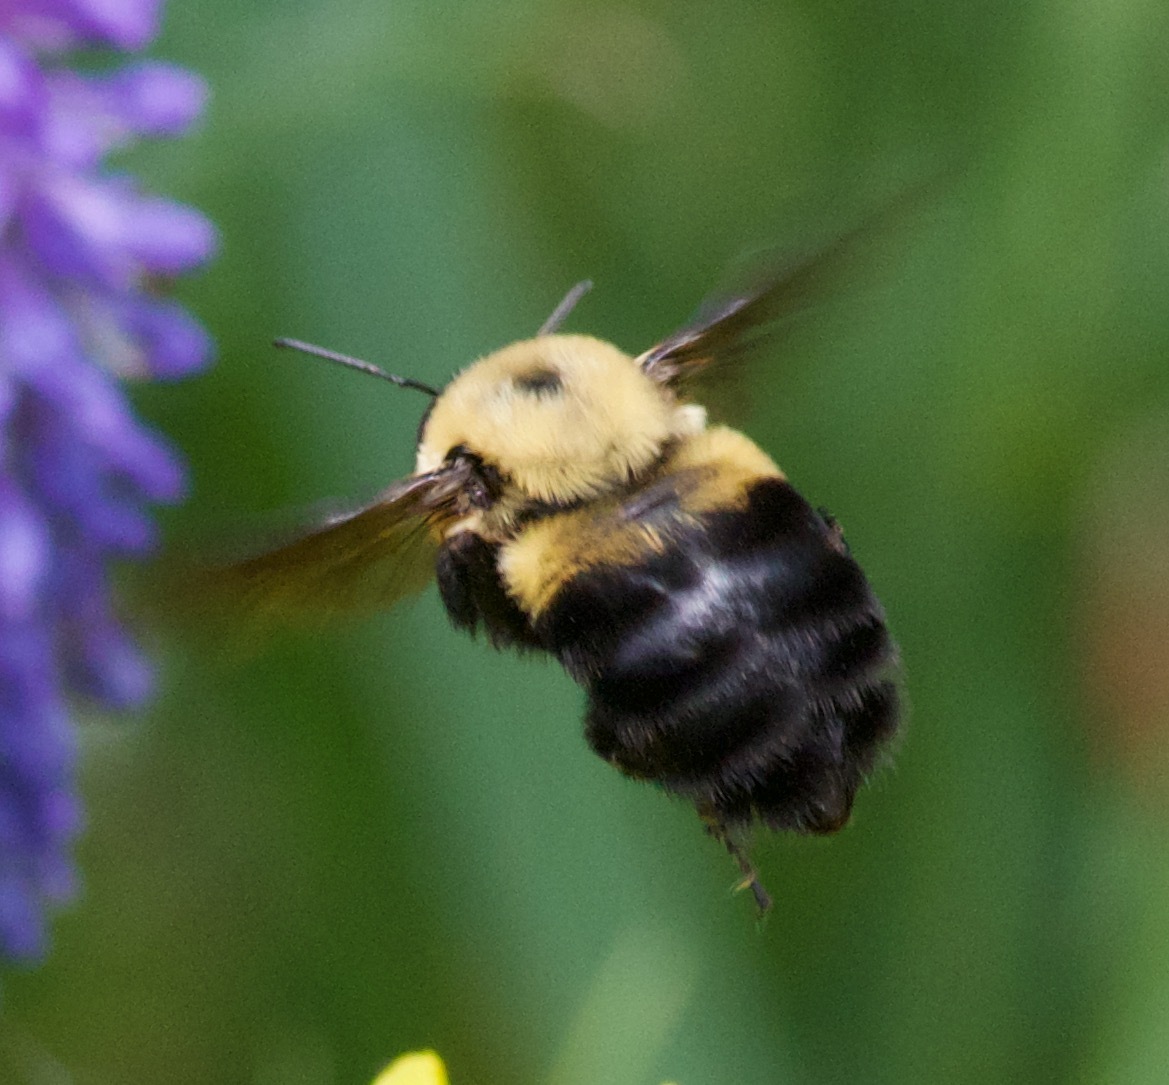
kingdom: Animalia
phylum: Arthropoda
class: Insecta
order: Hymenoptera
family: Apidae
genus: Bombus
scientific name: Bombus griseocollis
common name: Brown-belted bumble bee
